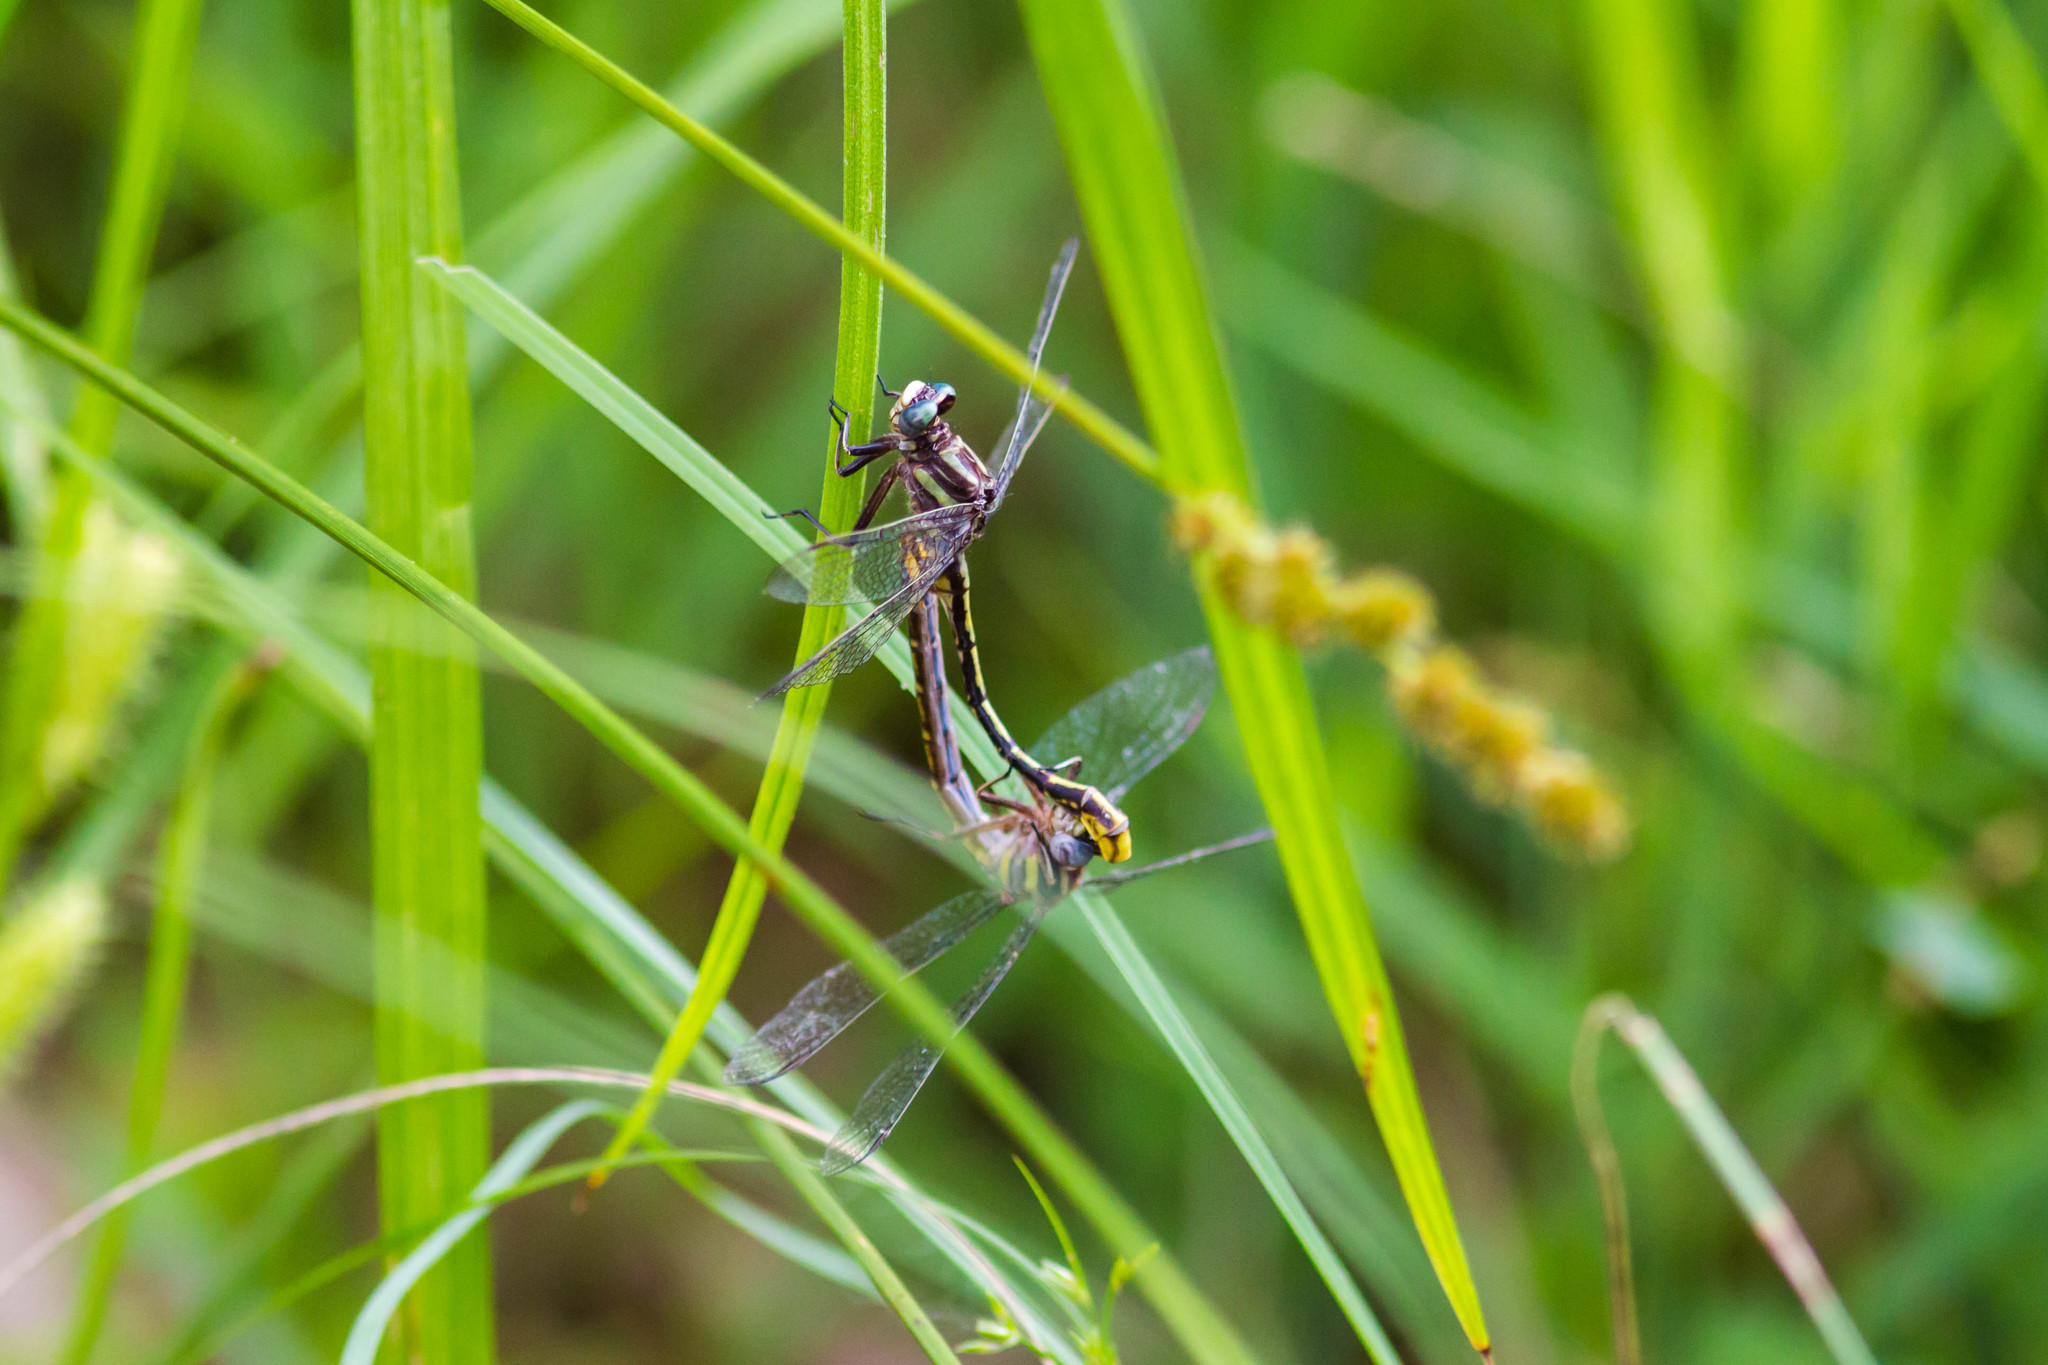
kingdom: Animalia
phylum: Arthropoda
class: Insecta
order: Odonata
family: Gomphidae
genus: Phanogomphus
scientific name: Phanogomphus exilis
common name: Lancet clubtail
